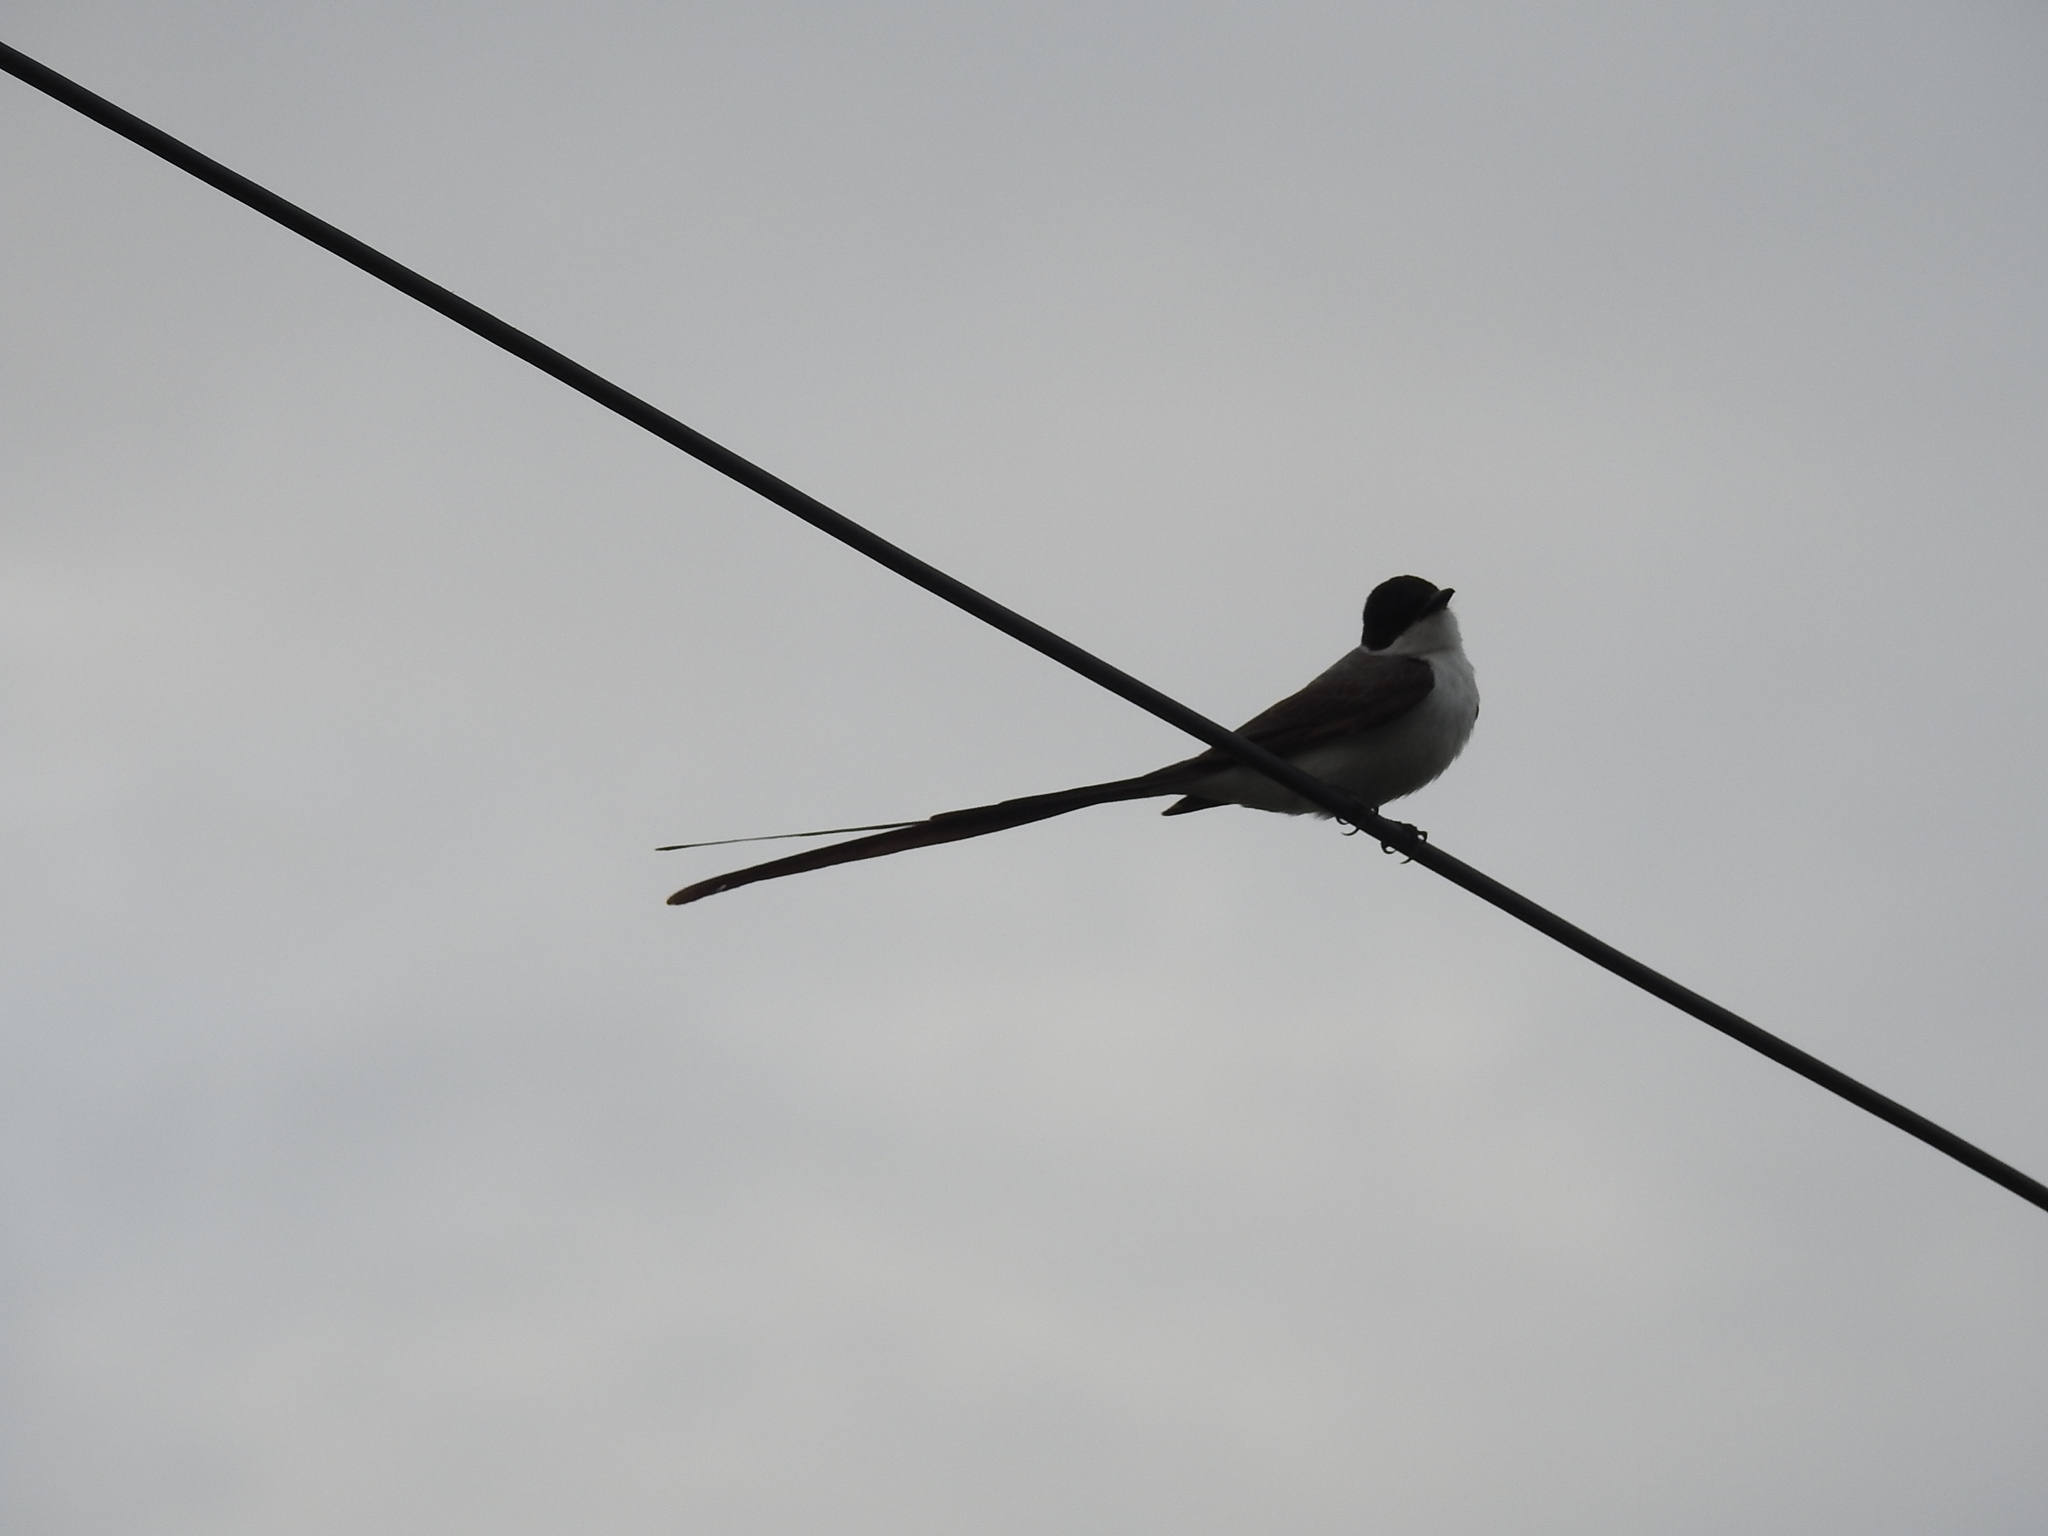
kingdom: Animalia
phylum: Chordata
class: Aves
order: Passeriformes
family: Tyrannidae
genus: Tyrannus
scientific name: Tyrannus savana
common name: Fork-tailed flycatcher
